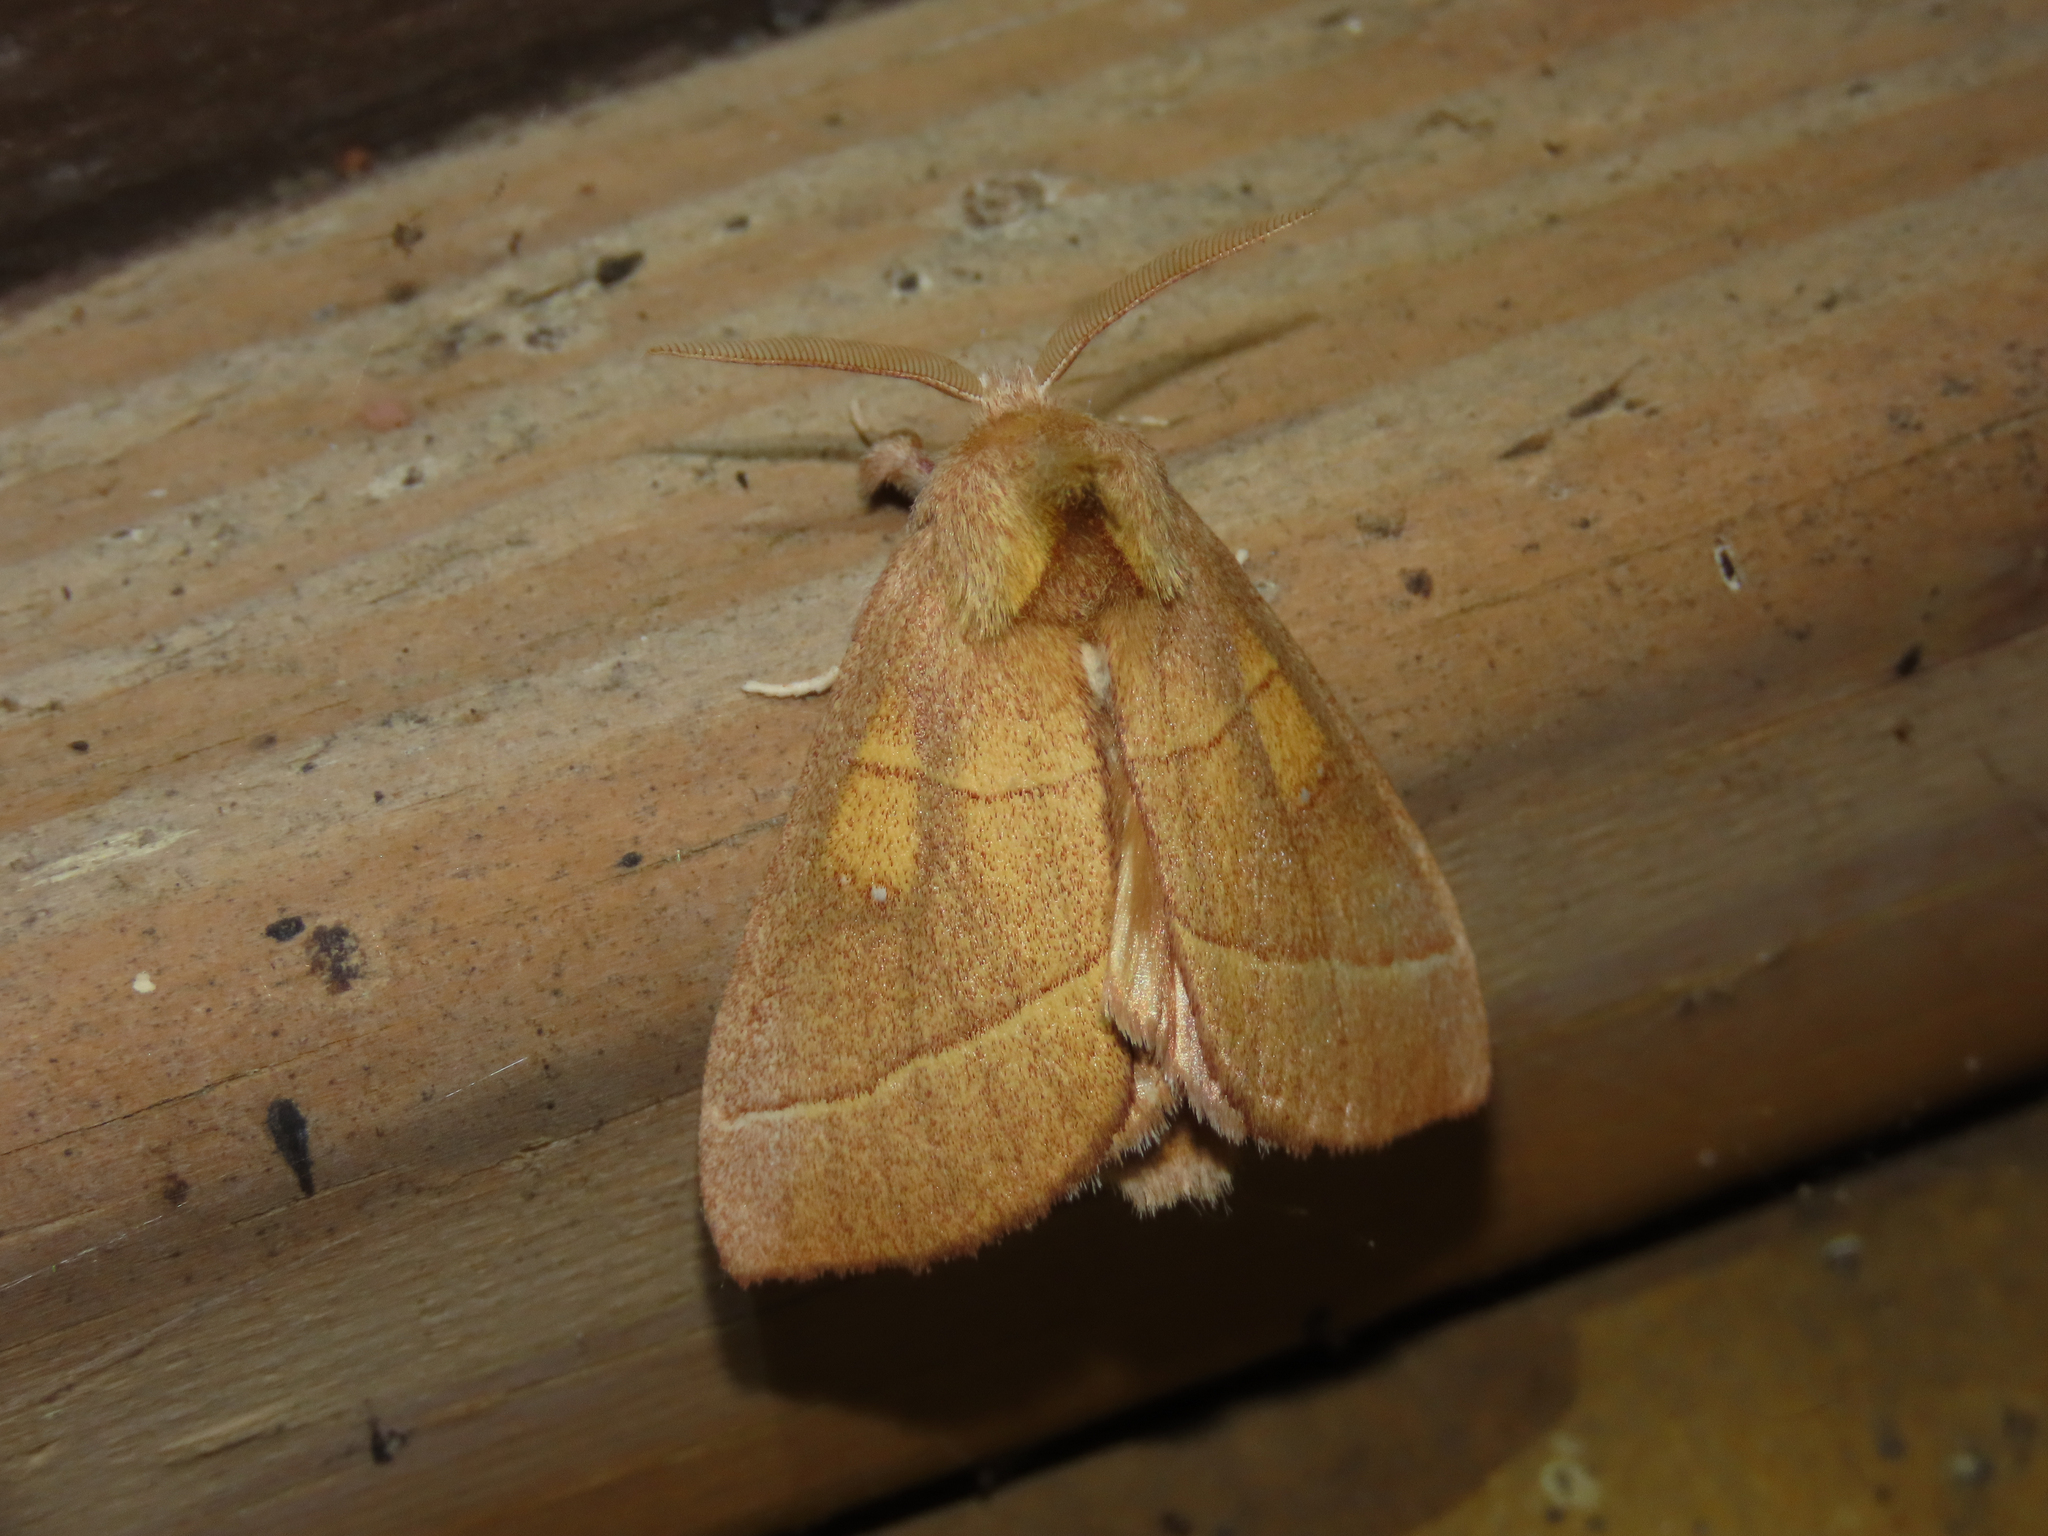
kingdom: Animalia
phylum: Arthropoda
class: Insecta
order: Lepidoptera
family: Notodontidae
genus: Nadata
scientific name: Nadata gibbosa
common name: White-dotted prominent
